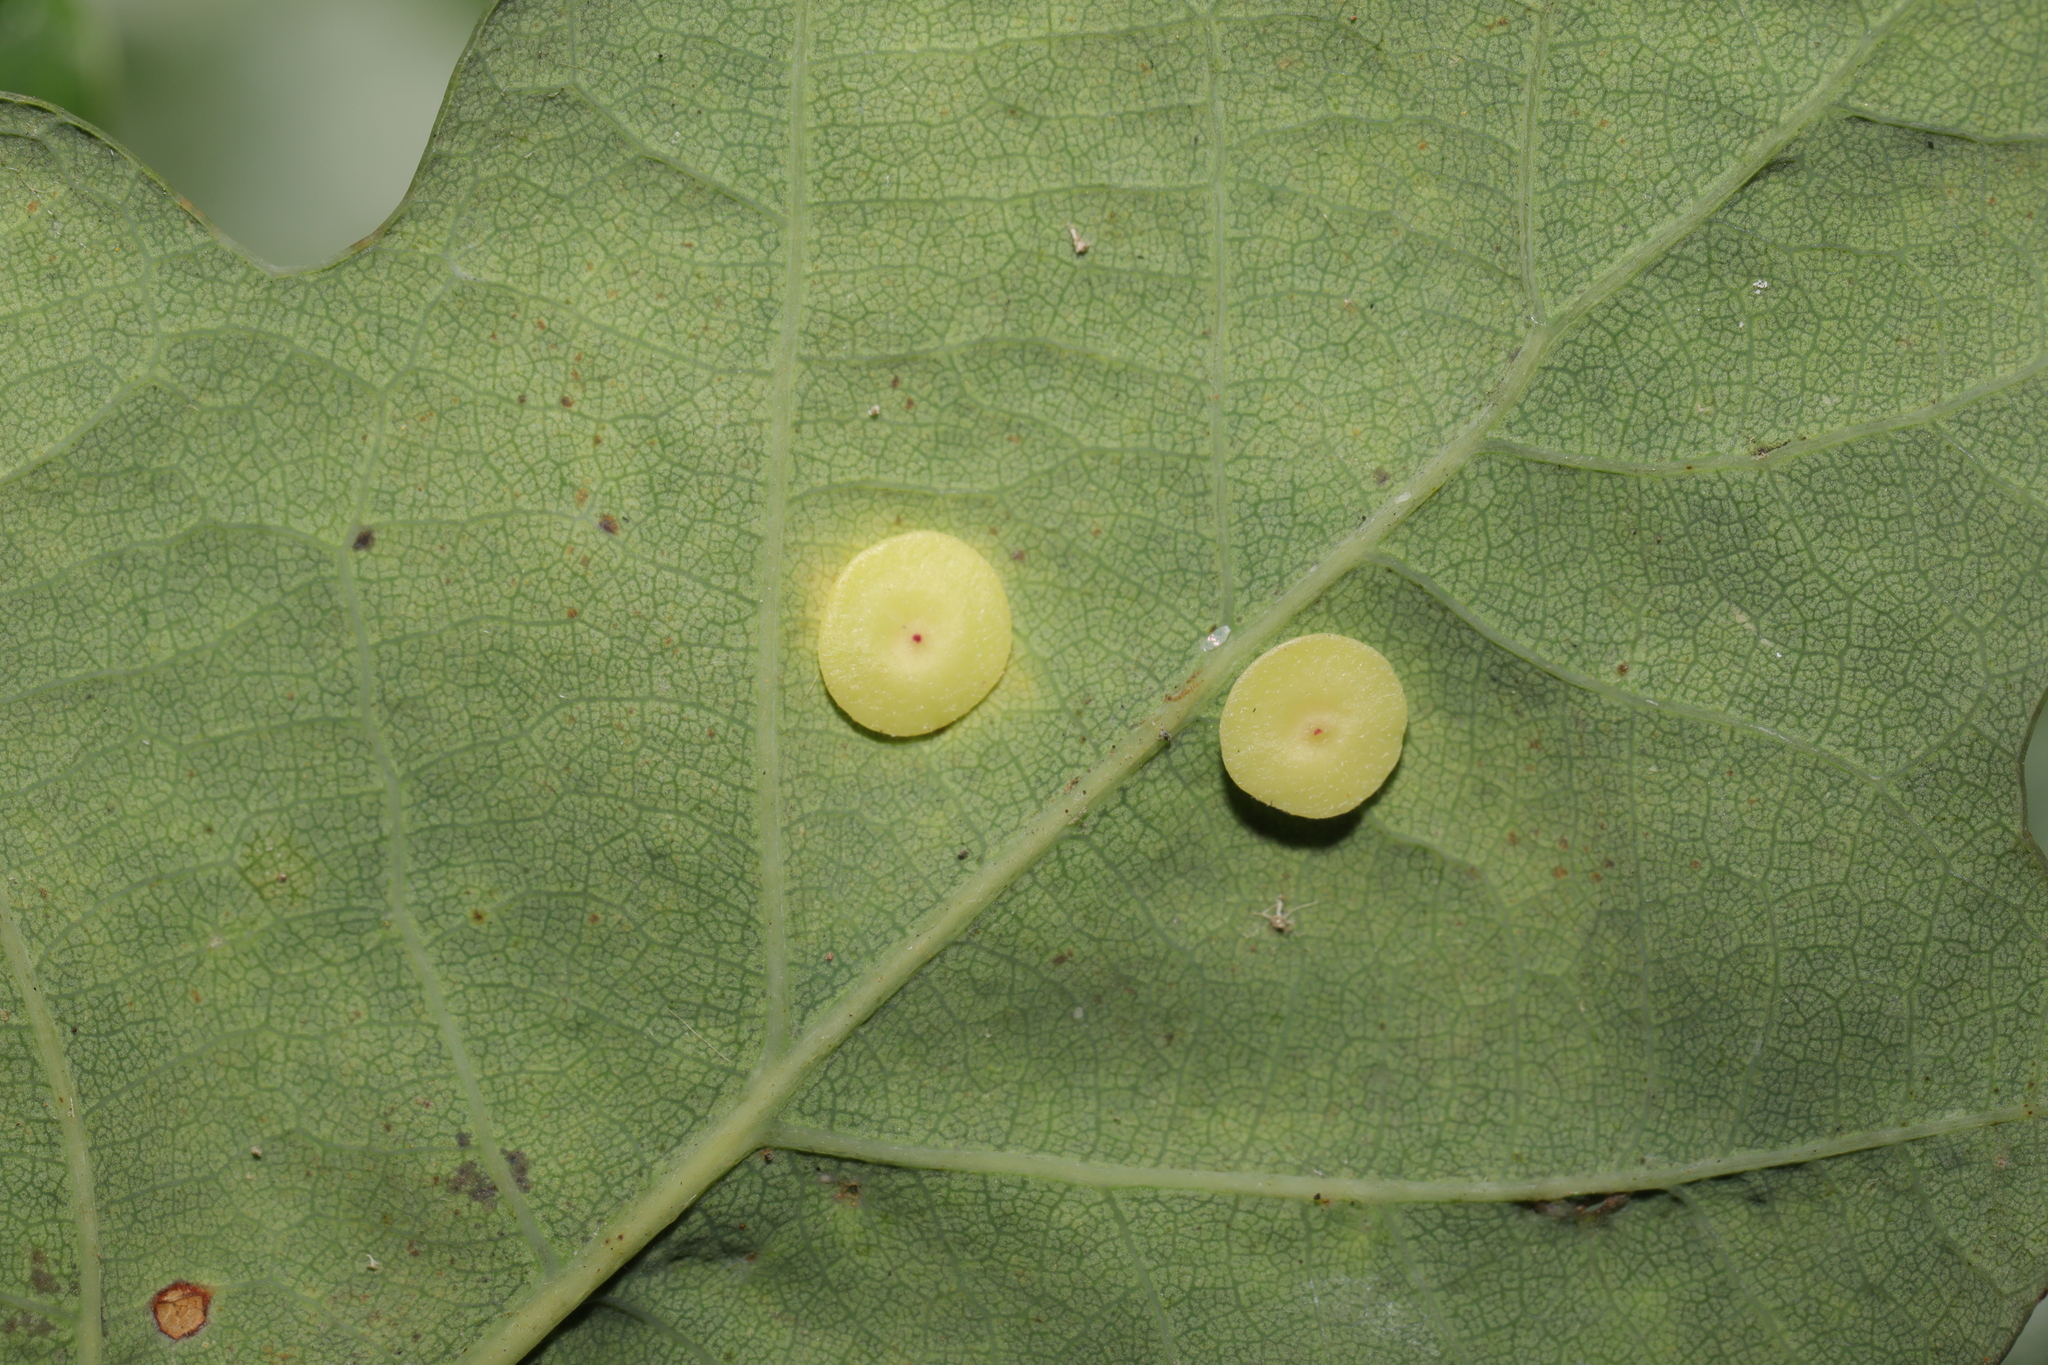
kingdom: Animalia
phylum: Arthropoda
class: Insecta
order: Hymenoptera
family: Cynipidae
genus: Neuroterus
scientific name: Neuroterus albipes
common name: Smooth spangle gall
